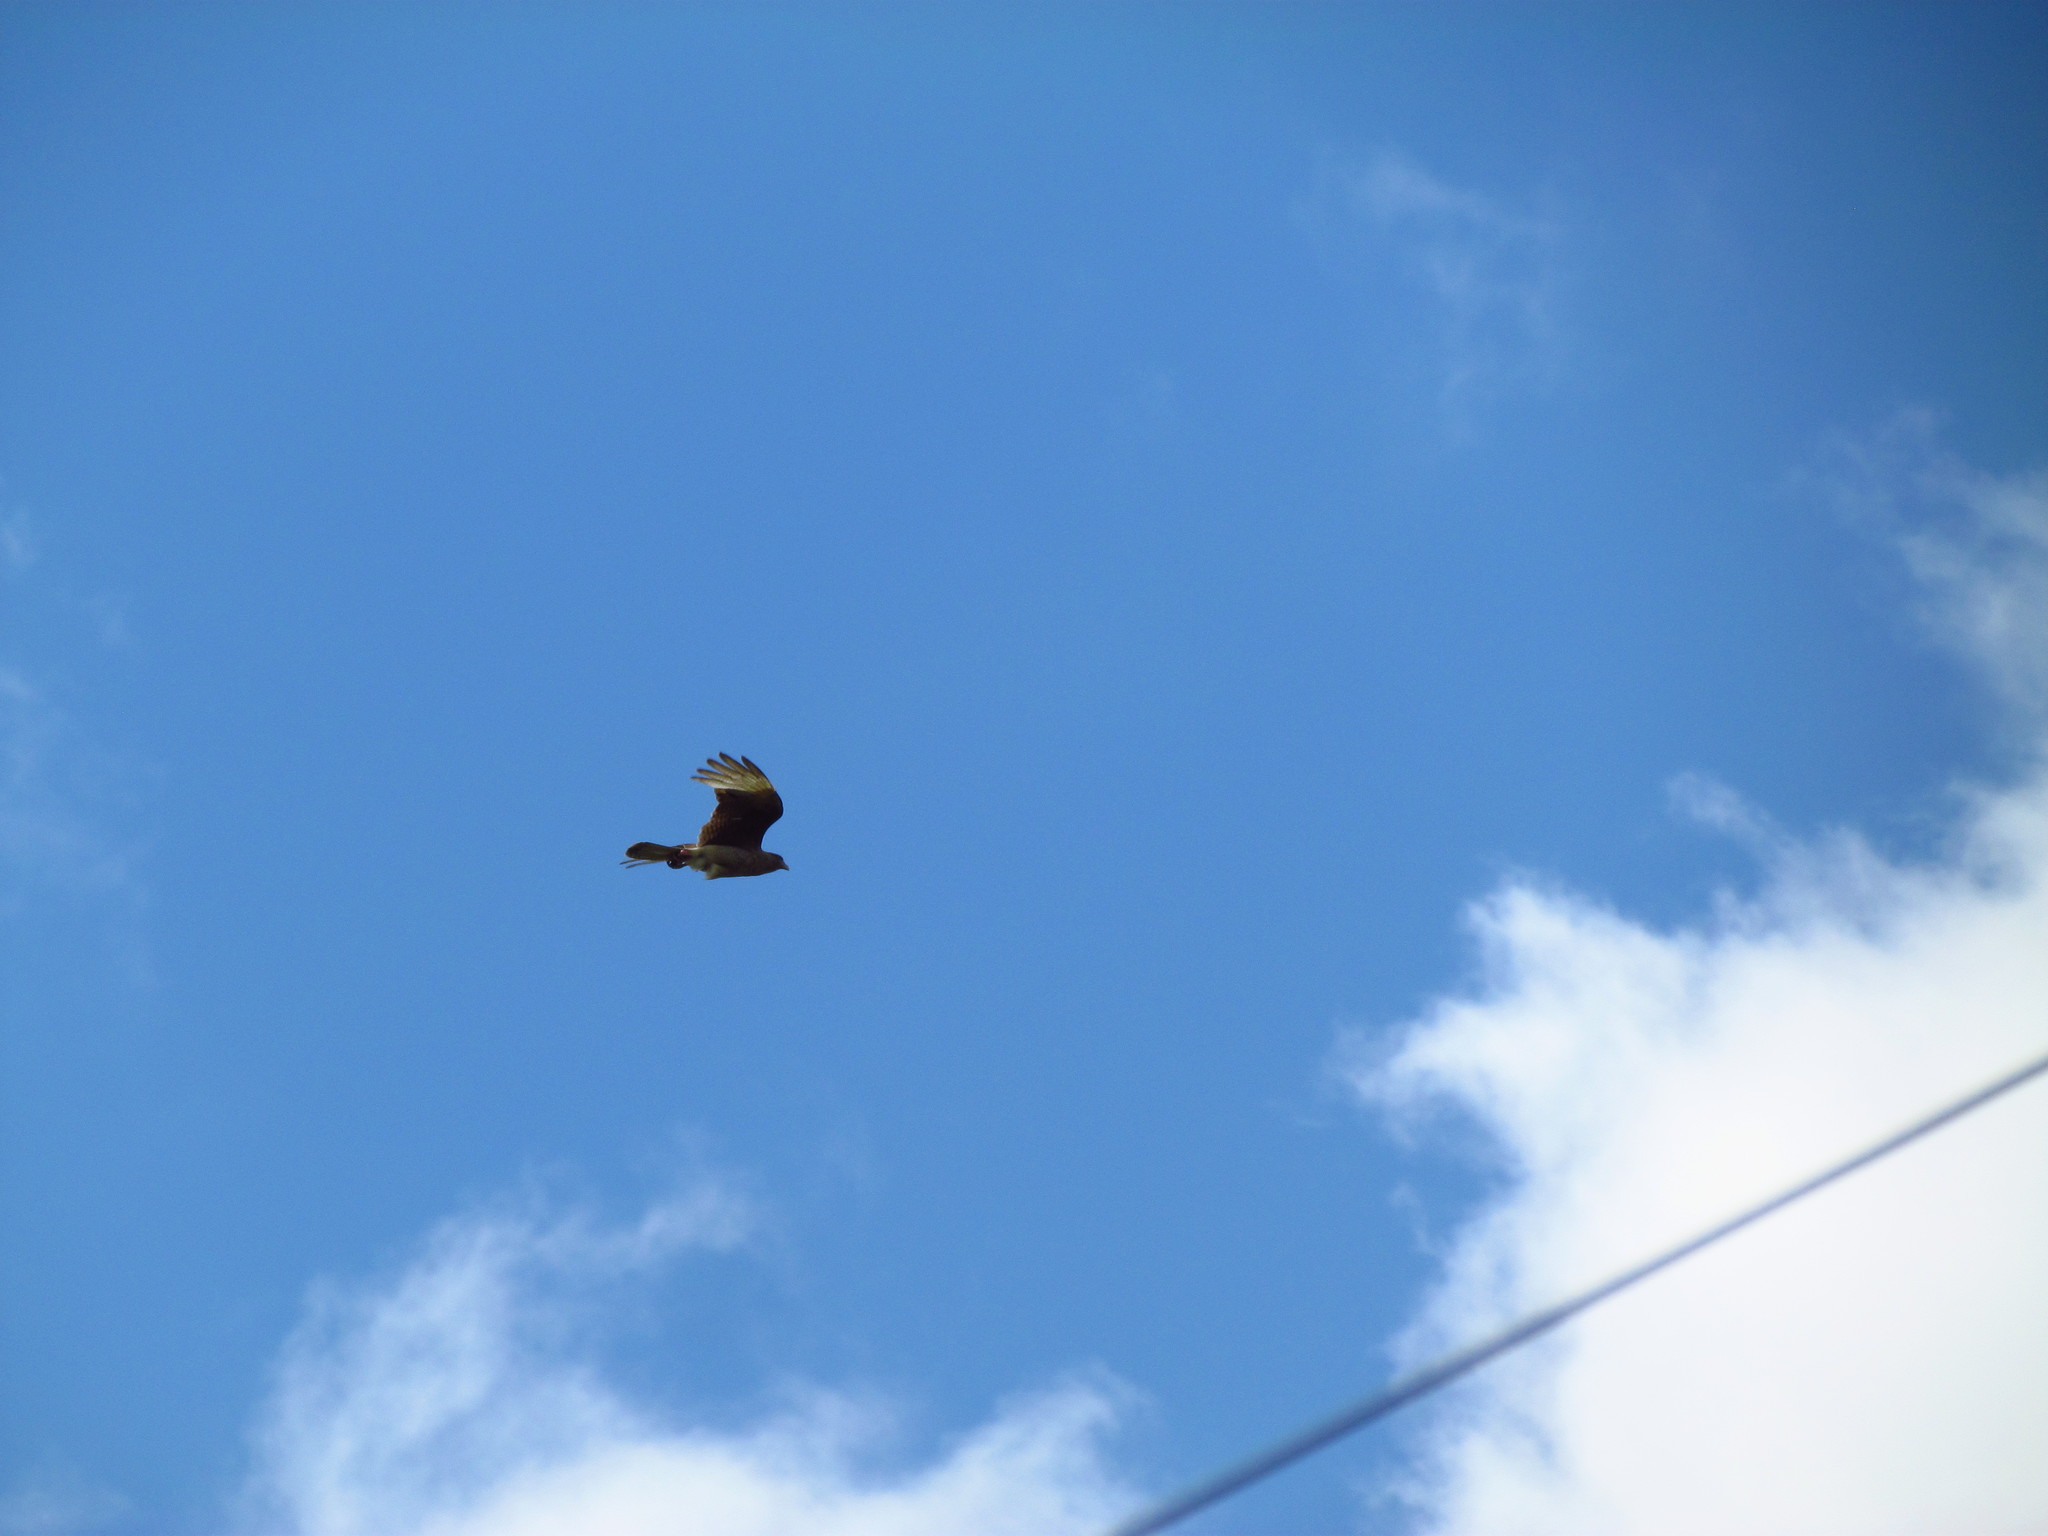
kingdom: Animalia
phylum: Chordata
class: Aves
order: Falconiformes
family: Falconidae
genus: Daptrius
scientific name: Daptrius
